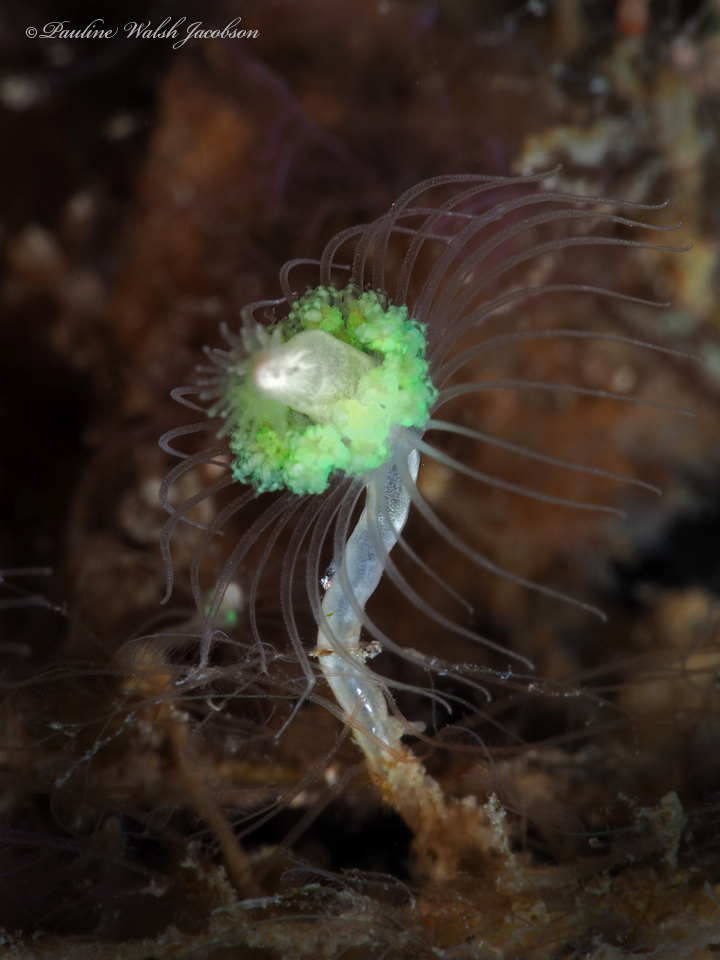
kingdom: Animalia
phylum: Cnidaria
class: Hydrozoa
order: Leptothecata
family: Lafoeidae
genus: Filellum
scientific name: Filellum bouvetensis
